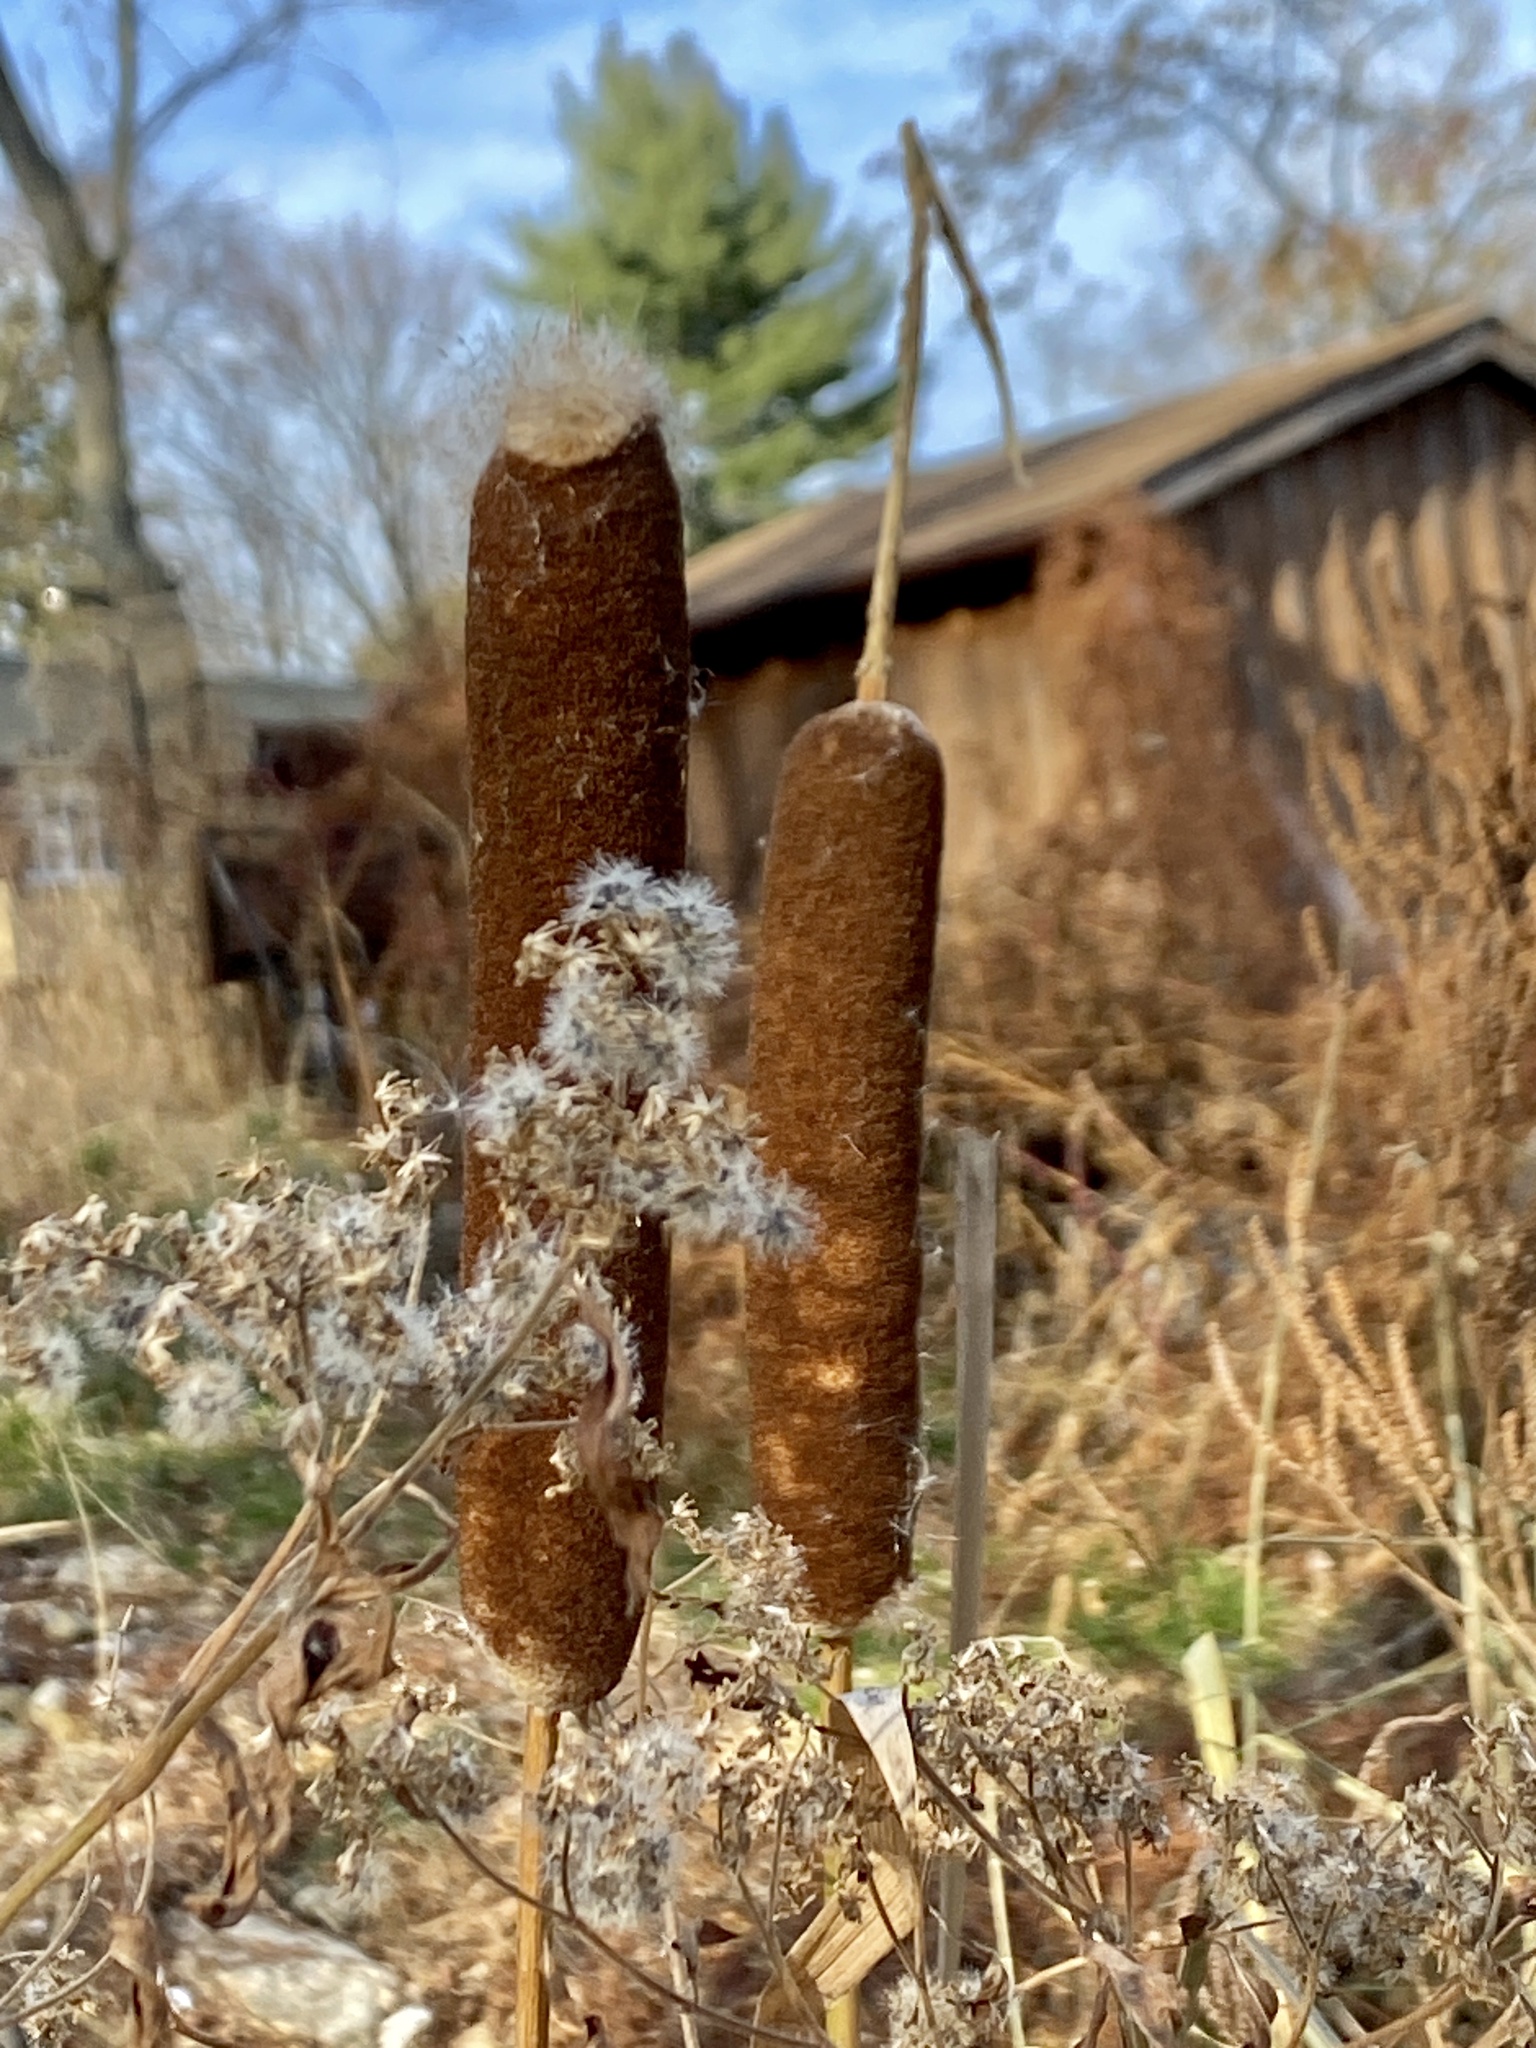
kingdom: Plantae
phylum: Tracheophyta
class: Liliopsida
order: Poales
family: Typhaceae
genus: Typha
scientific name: Typha
